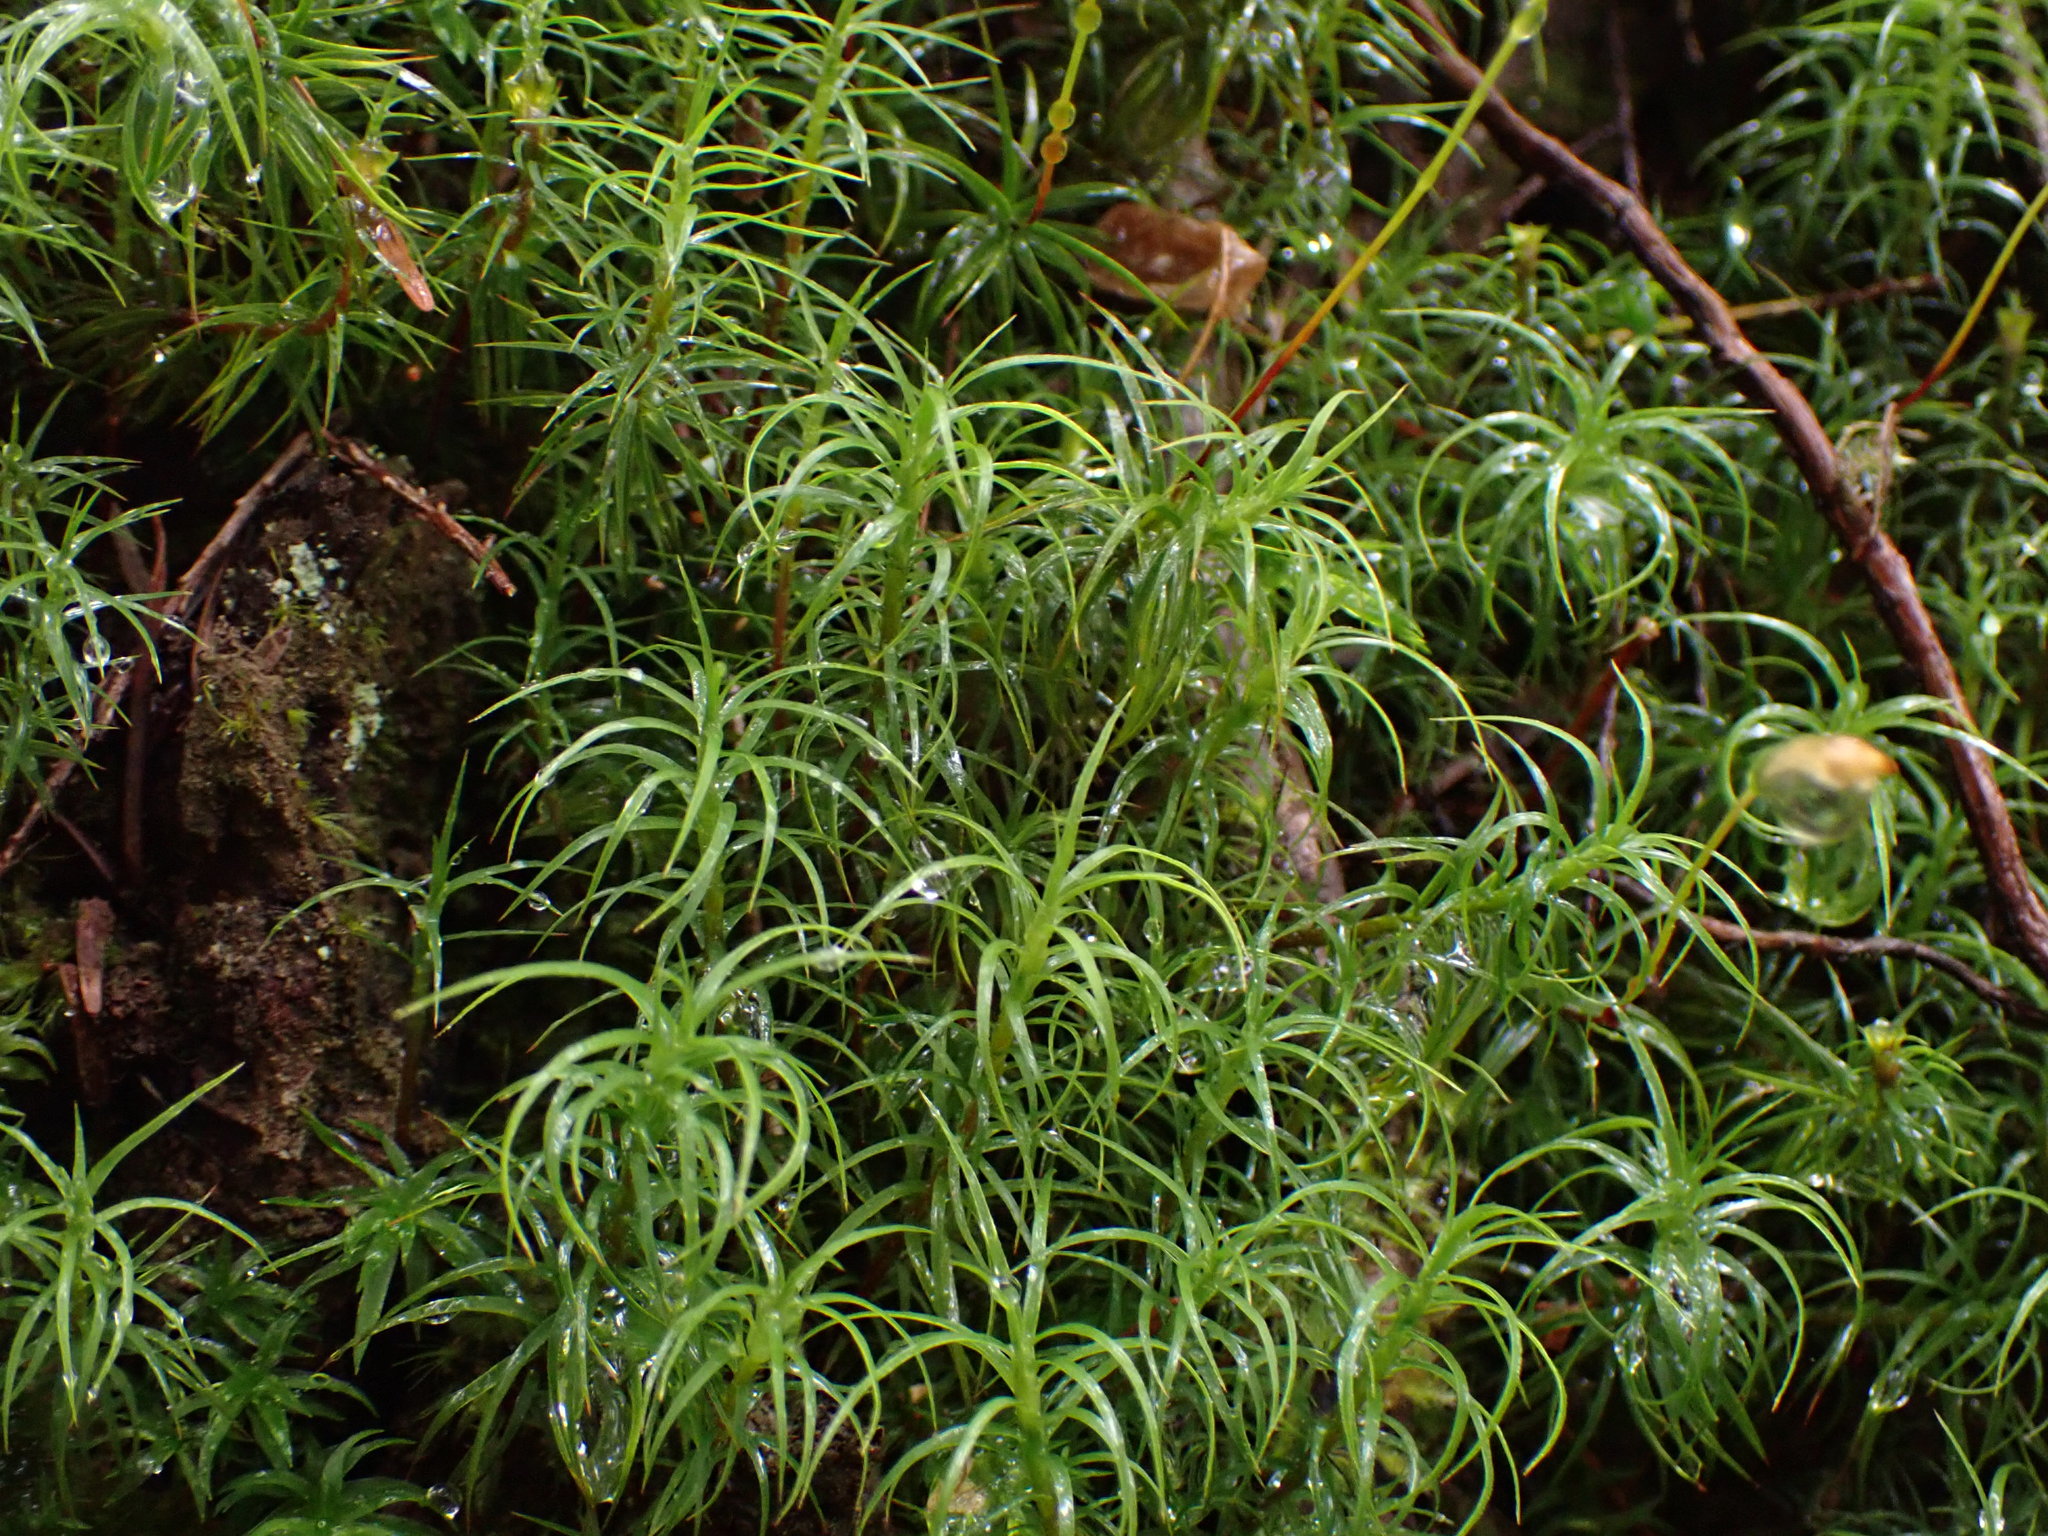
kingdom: Plantae
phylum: Bryophyta
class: Polytrichopsida
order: Polytrichales
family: Polytrichaceae
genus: Polytrichastrum
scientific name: Polytrichastrum alpinum
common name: Alpine haircap
